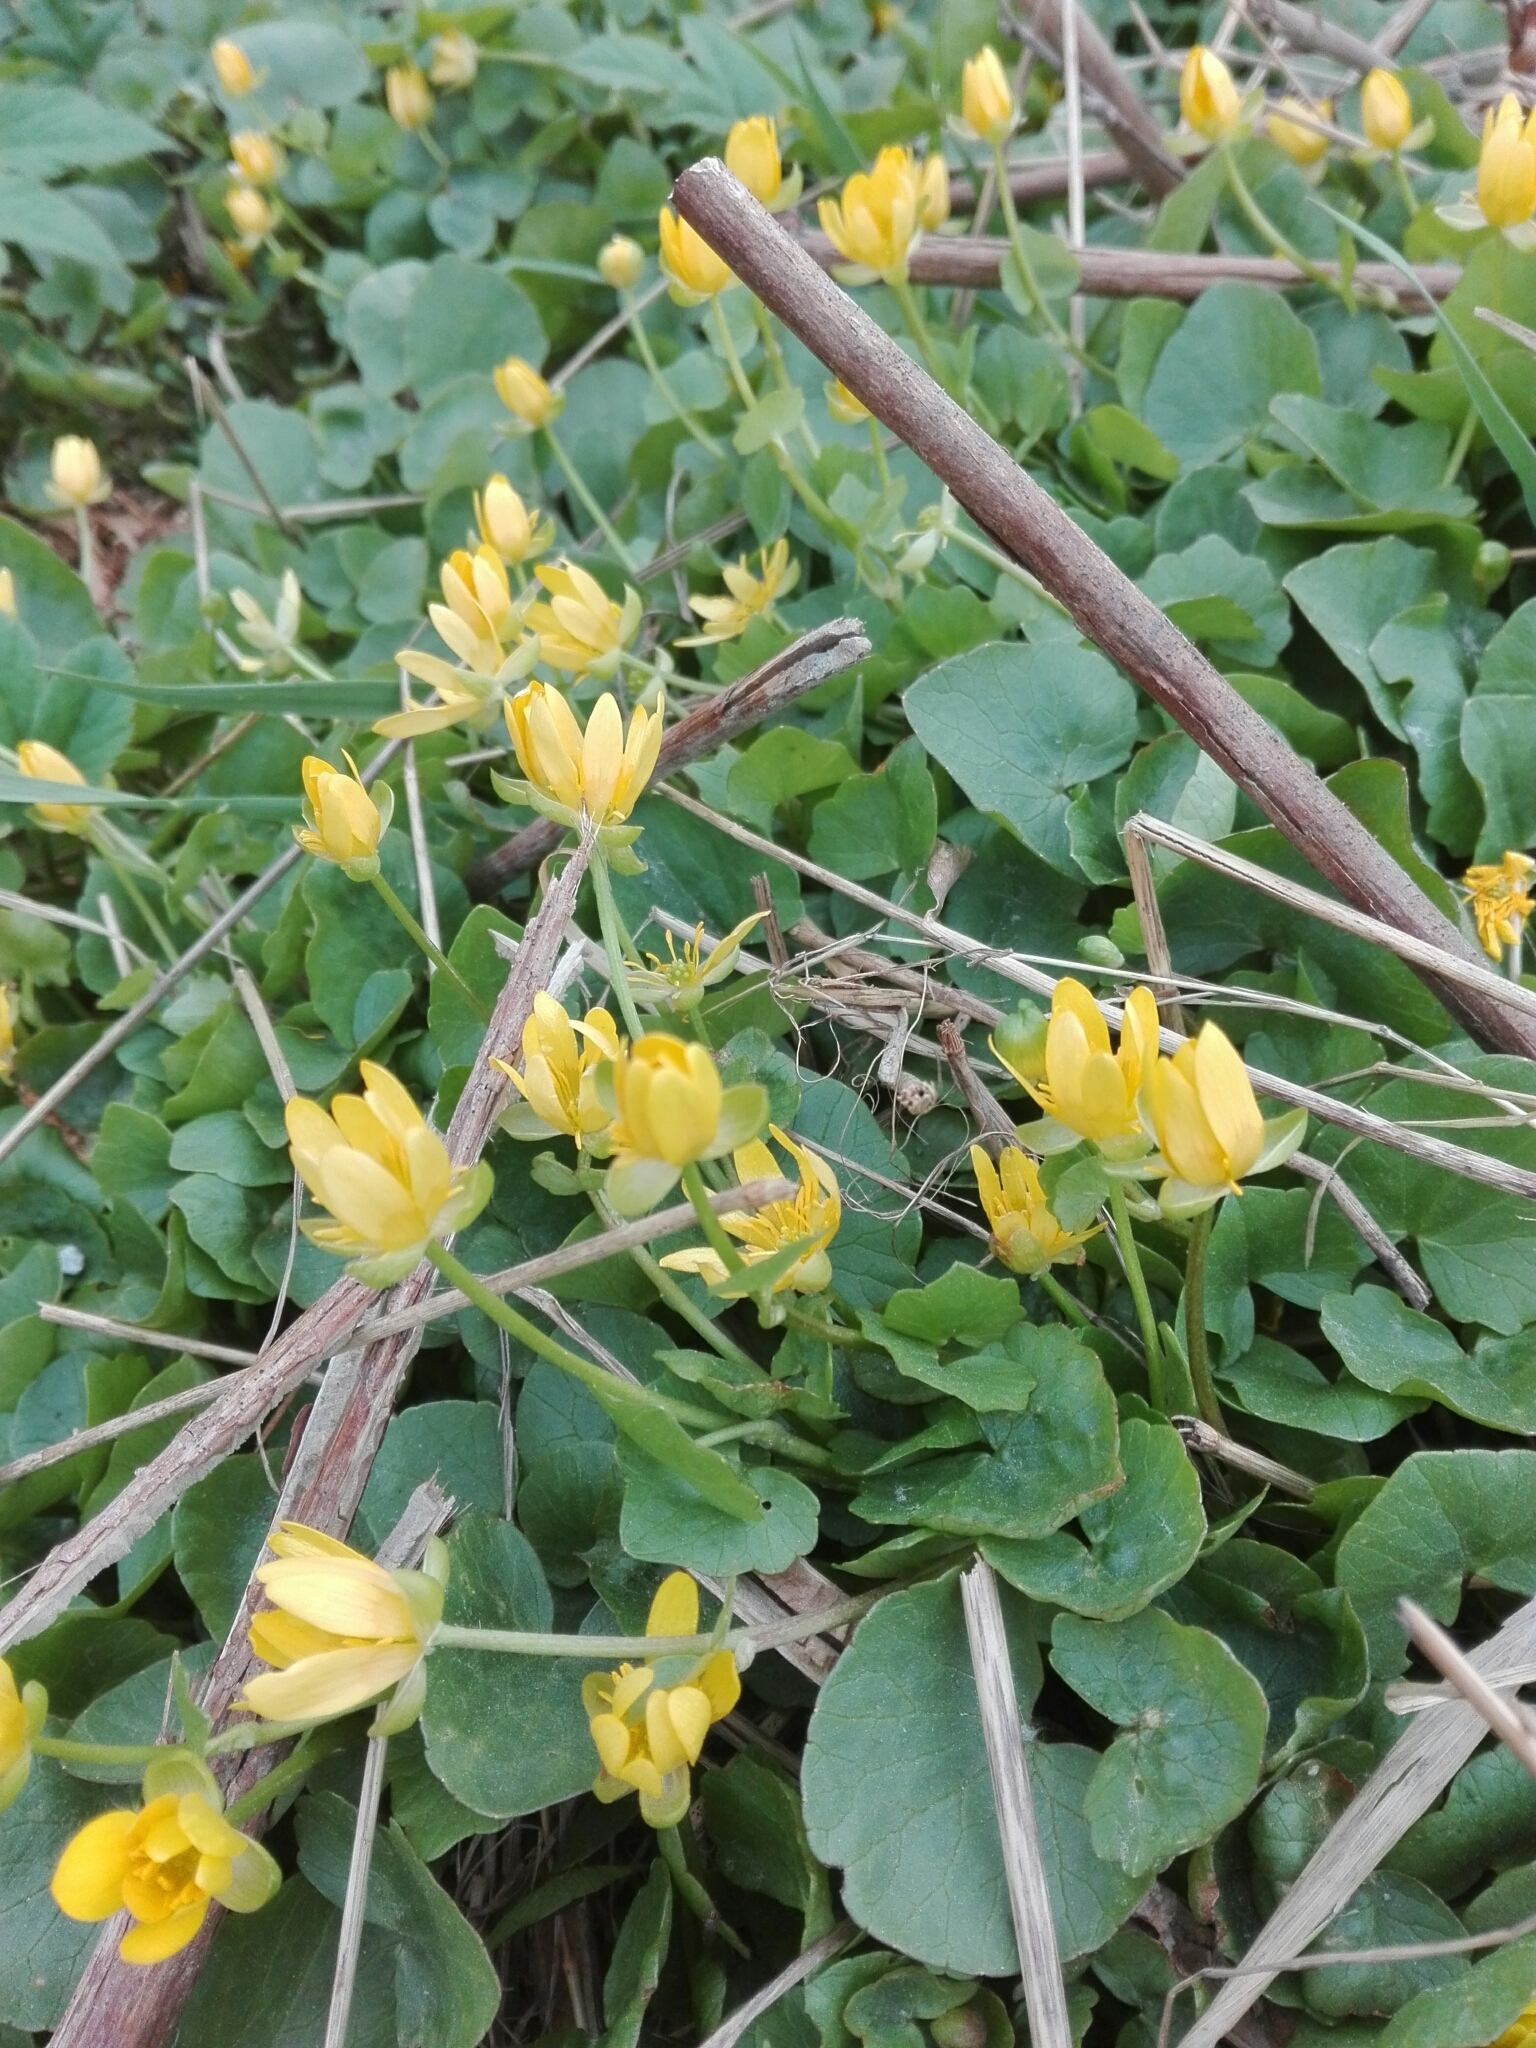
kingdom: Plantae
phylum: Tracheophyta
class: Magnoliopsida
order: Ranunculales
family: Ranunculaceae
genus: Ficaria
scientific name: Ficaria verna
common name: Lesser celandine
